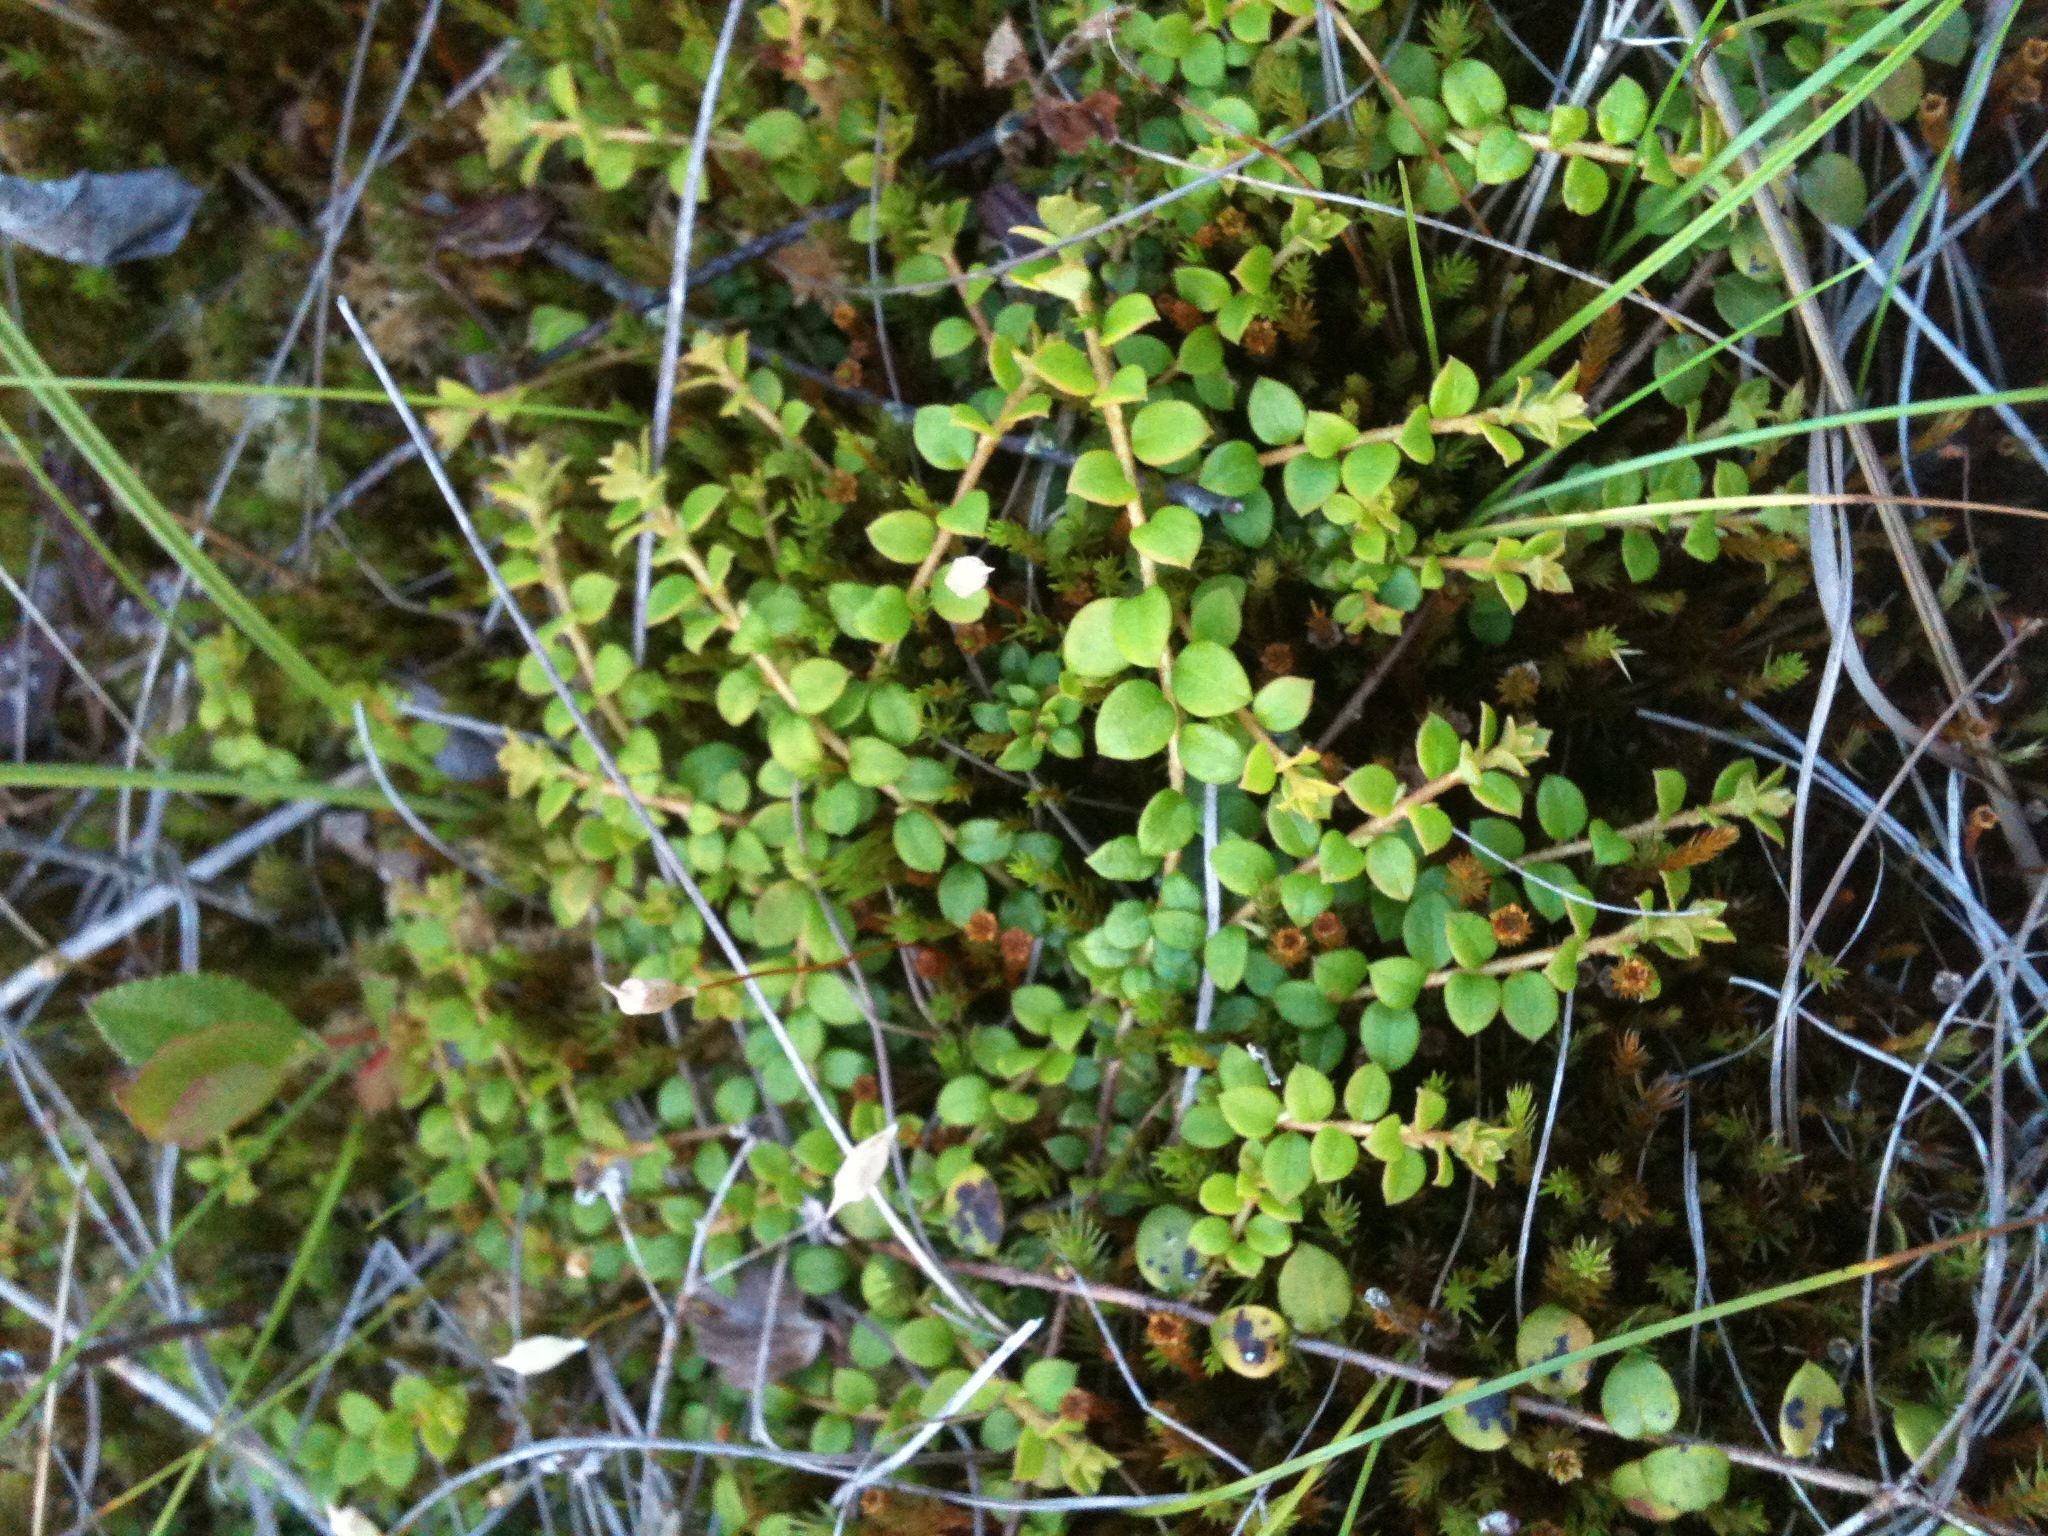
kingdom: Plantae
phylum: Tracheophyta
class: Magnoliopsida
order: Ericales
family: Ericaceae
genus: Gaultheria
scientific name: Gaultheria hispidula
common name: Cancer wintergreen
